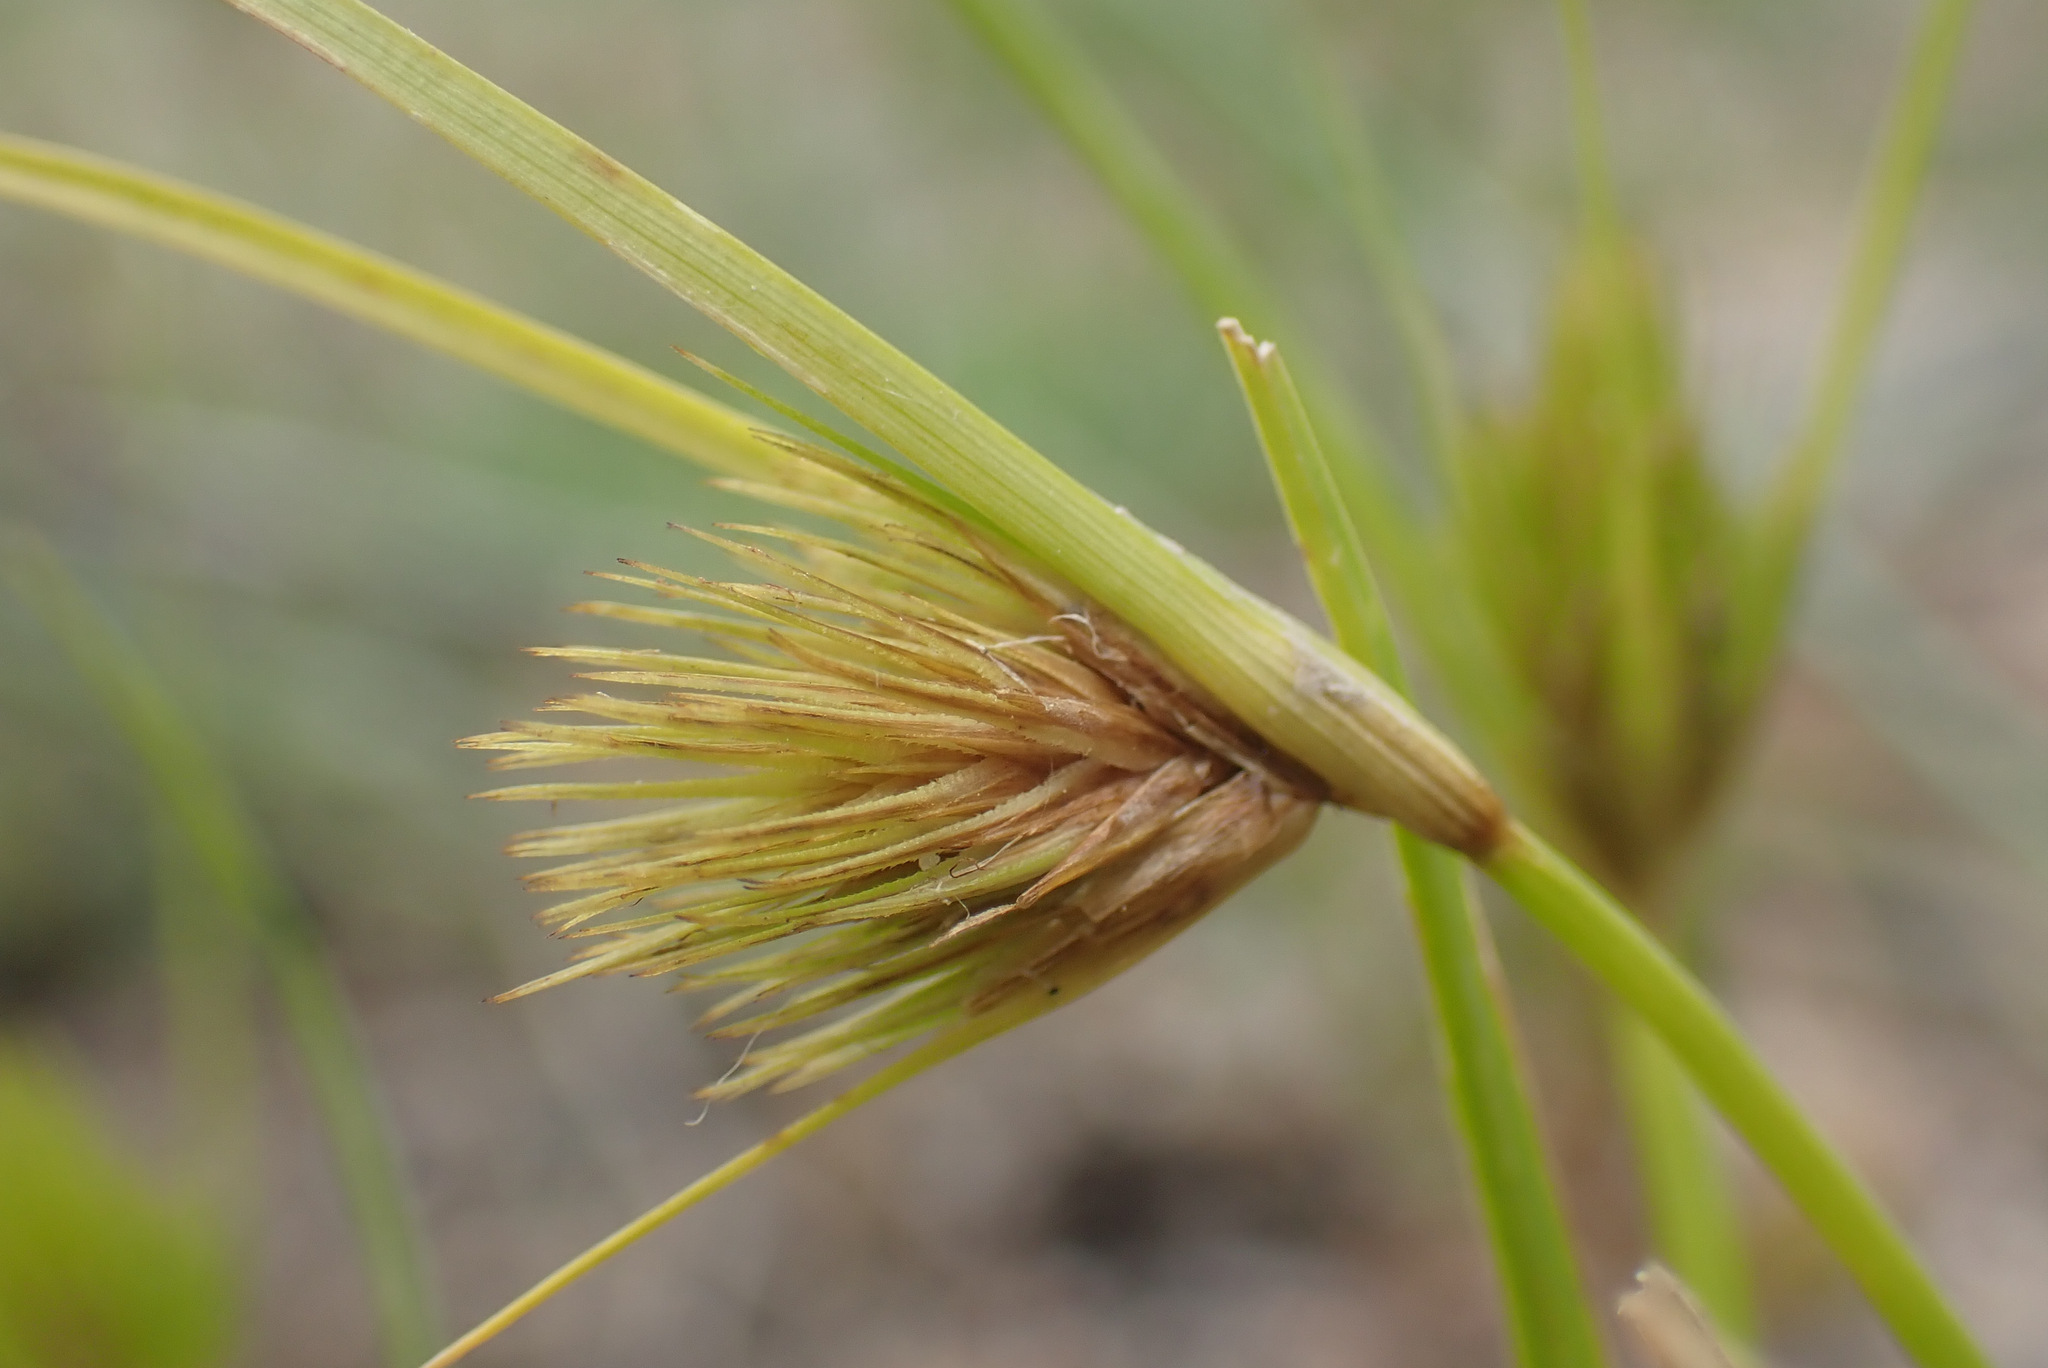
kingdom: Plantae
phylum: Tracheophyta
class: Liliopsida
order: Poales
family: Cyperaceae
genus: Carex
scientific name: Carex bohemica
